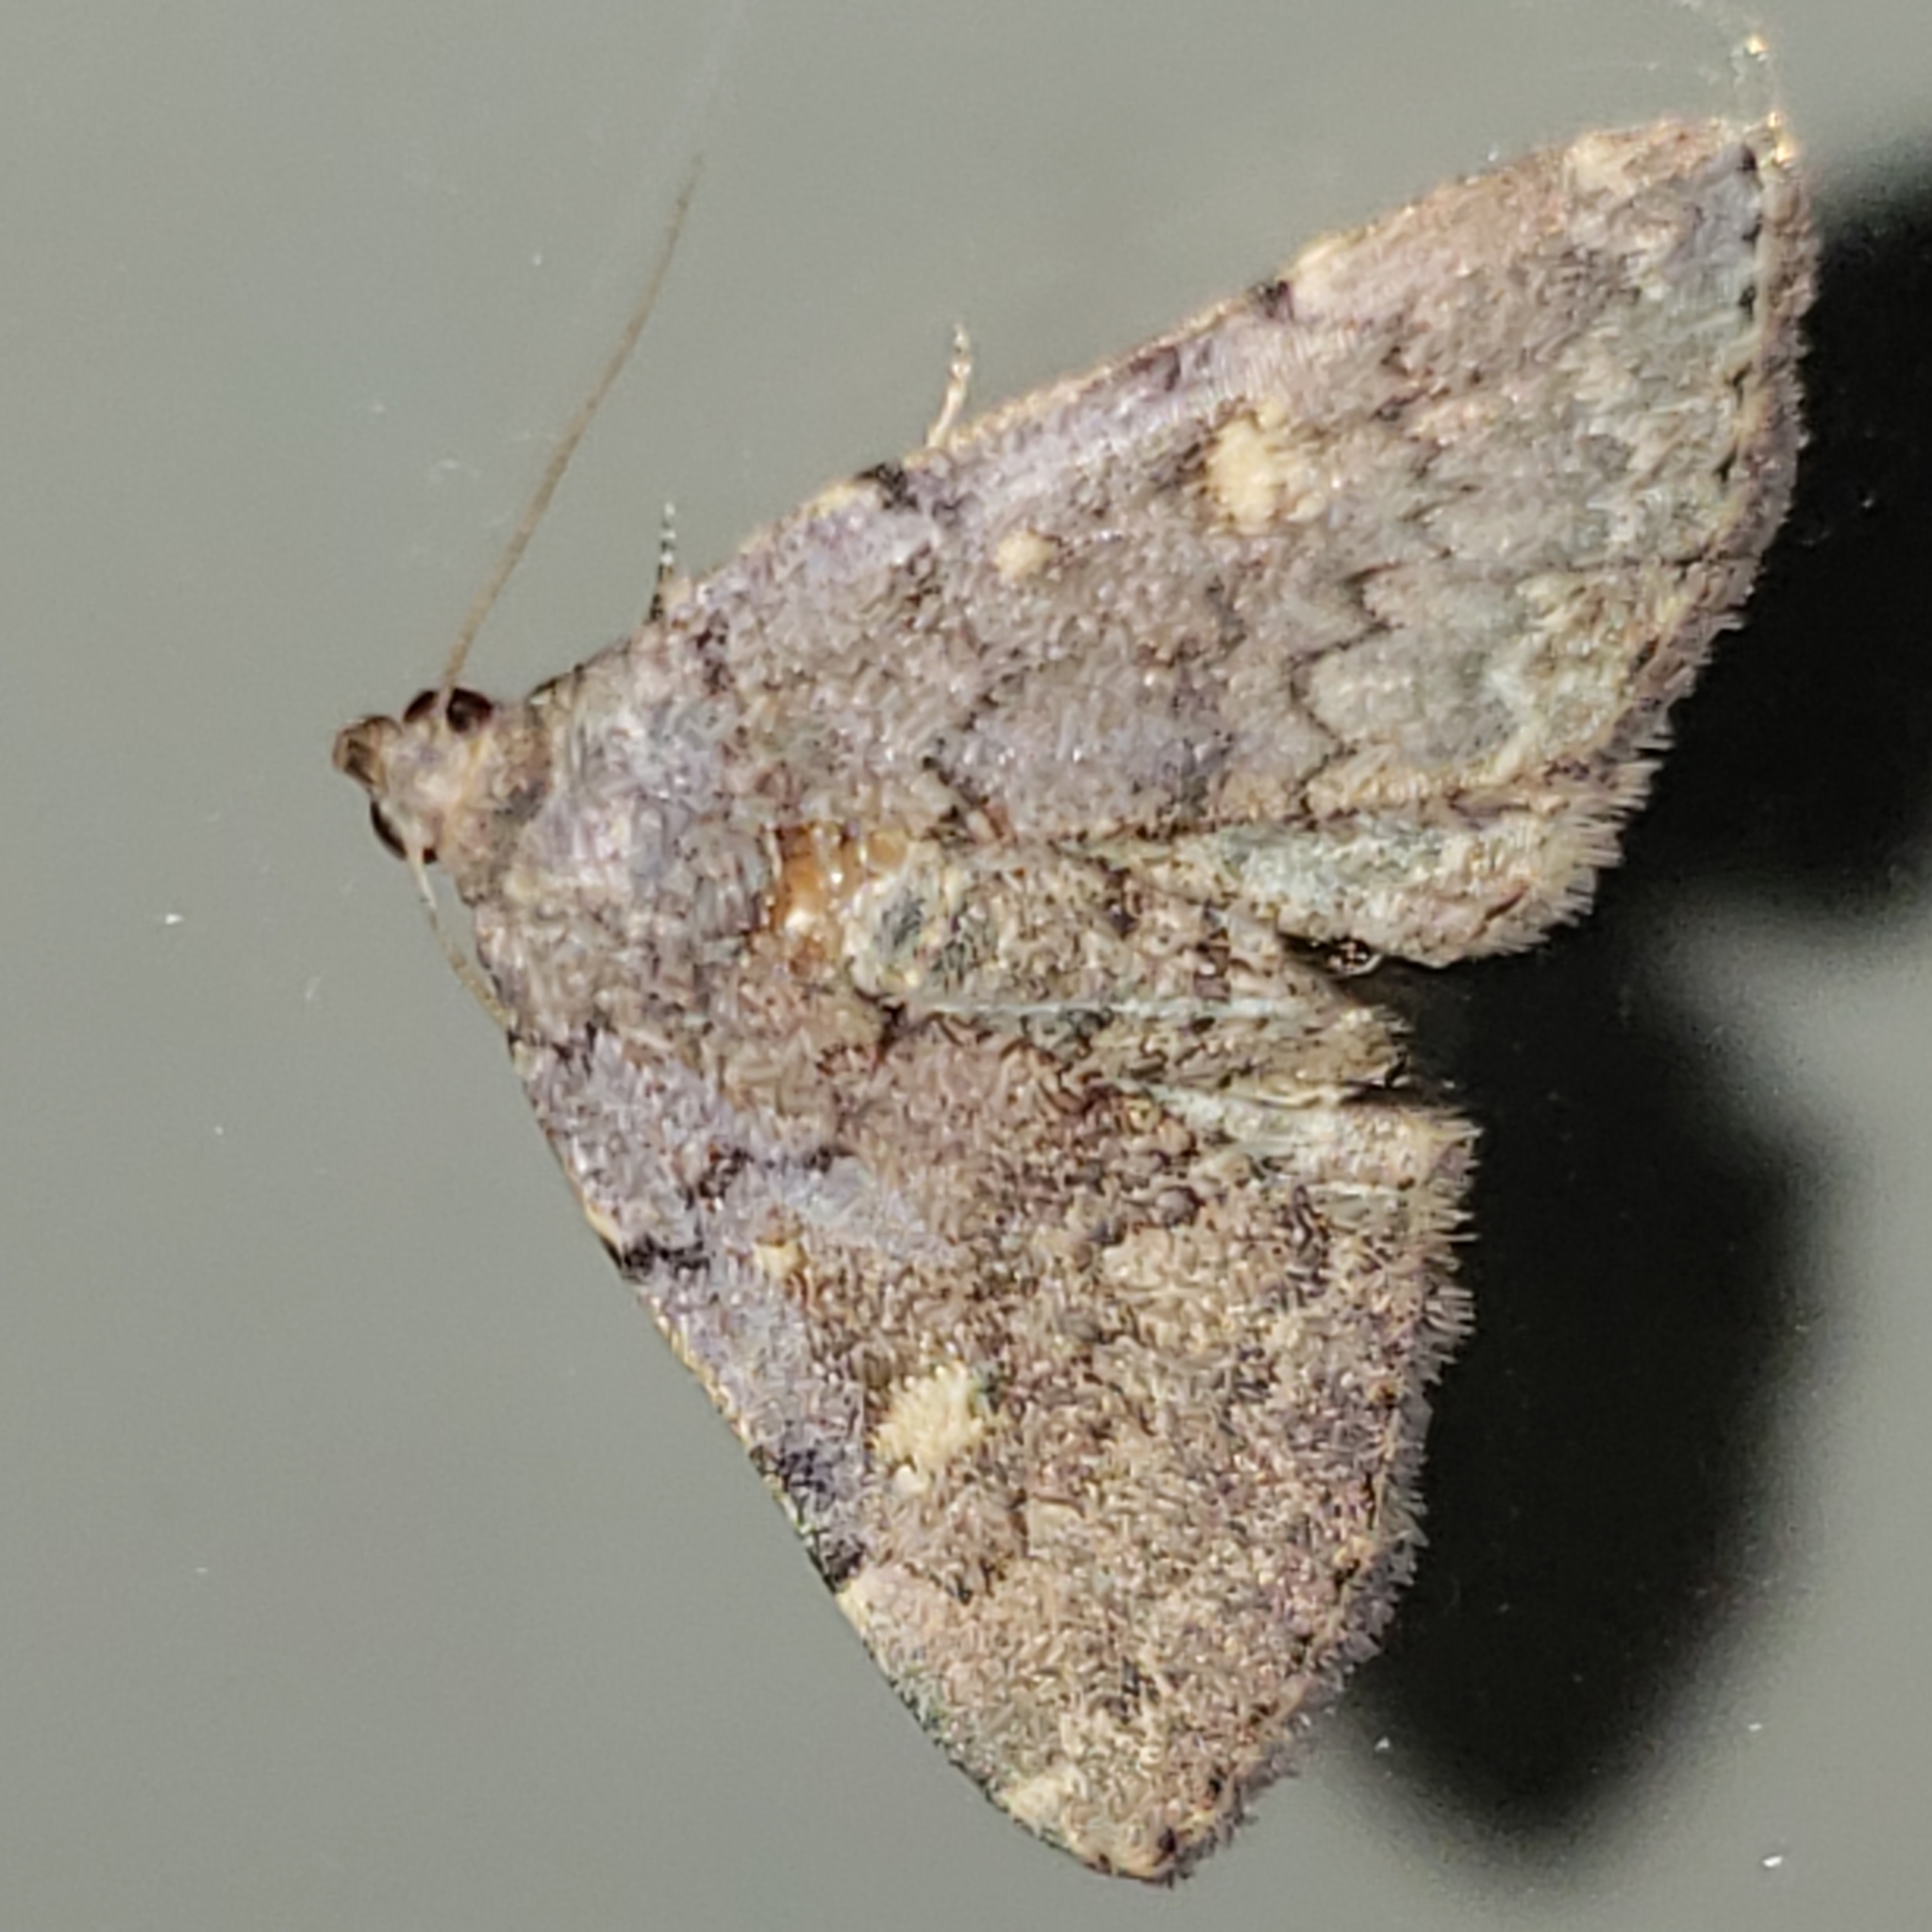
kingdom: Animalia
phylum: Arthropoda
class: Insecta
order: Lepidoptera
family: Erebidae
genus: Idia
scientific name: Idia aemula
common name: Common idia moth
